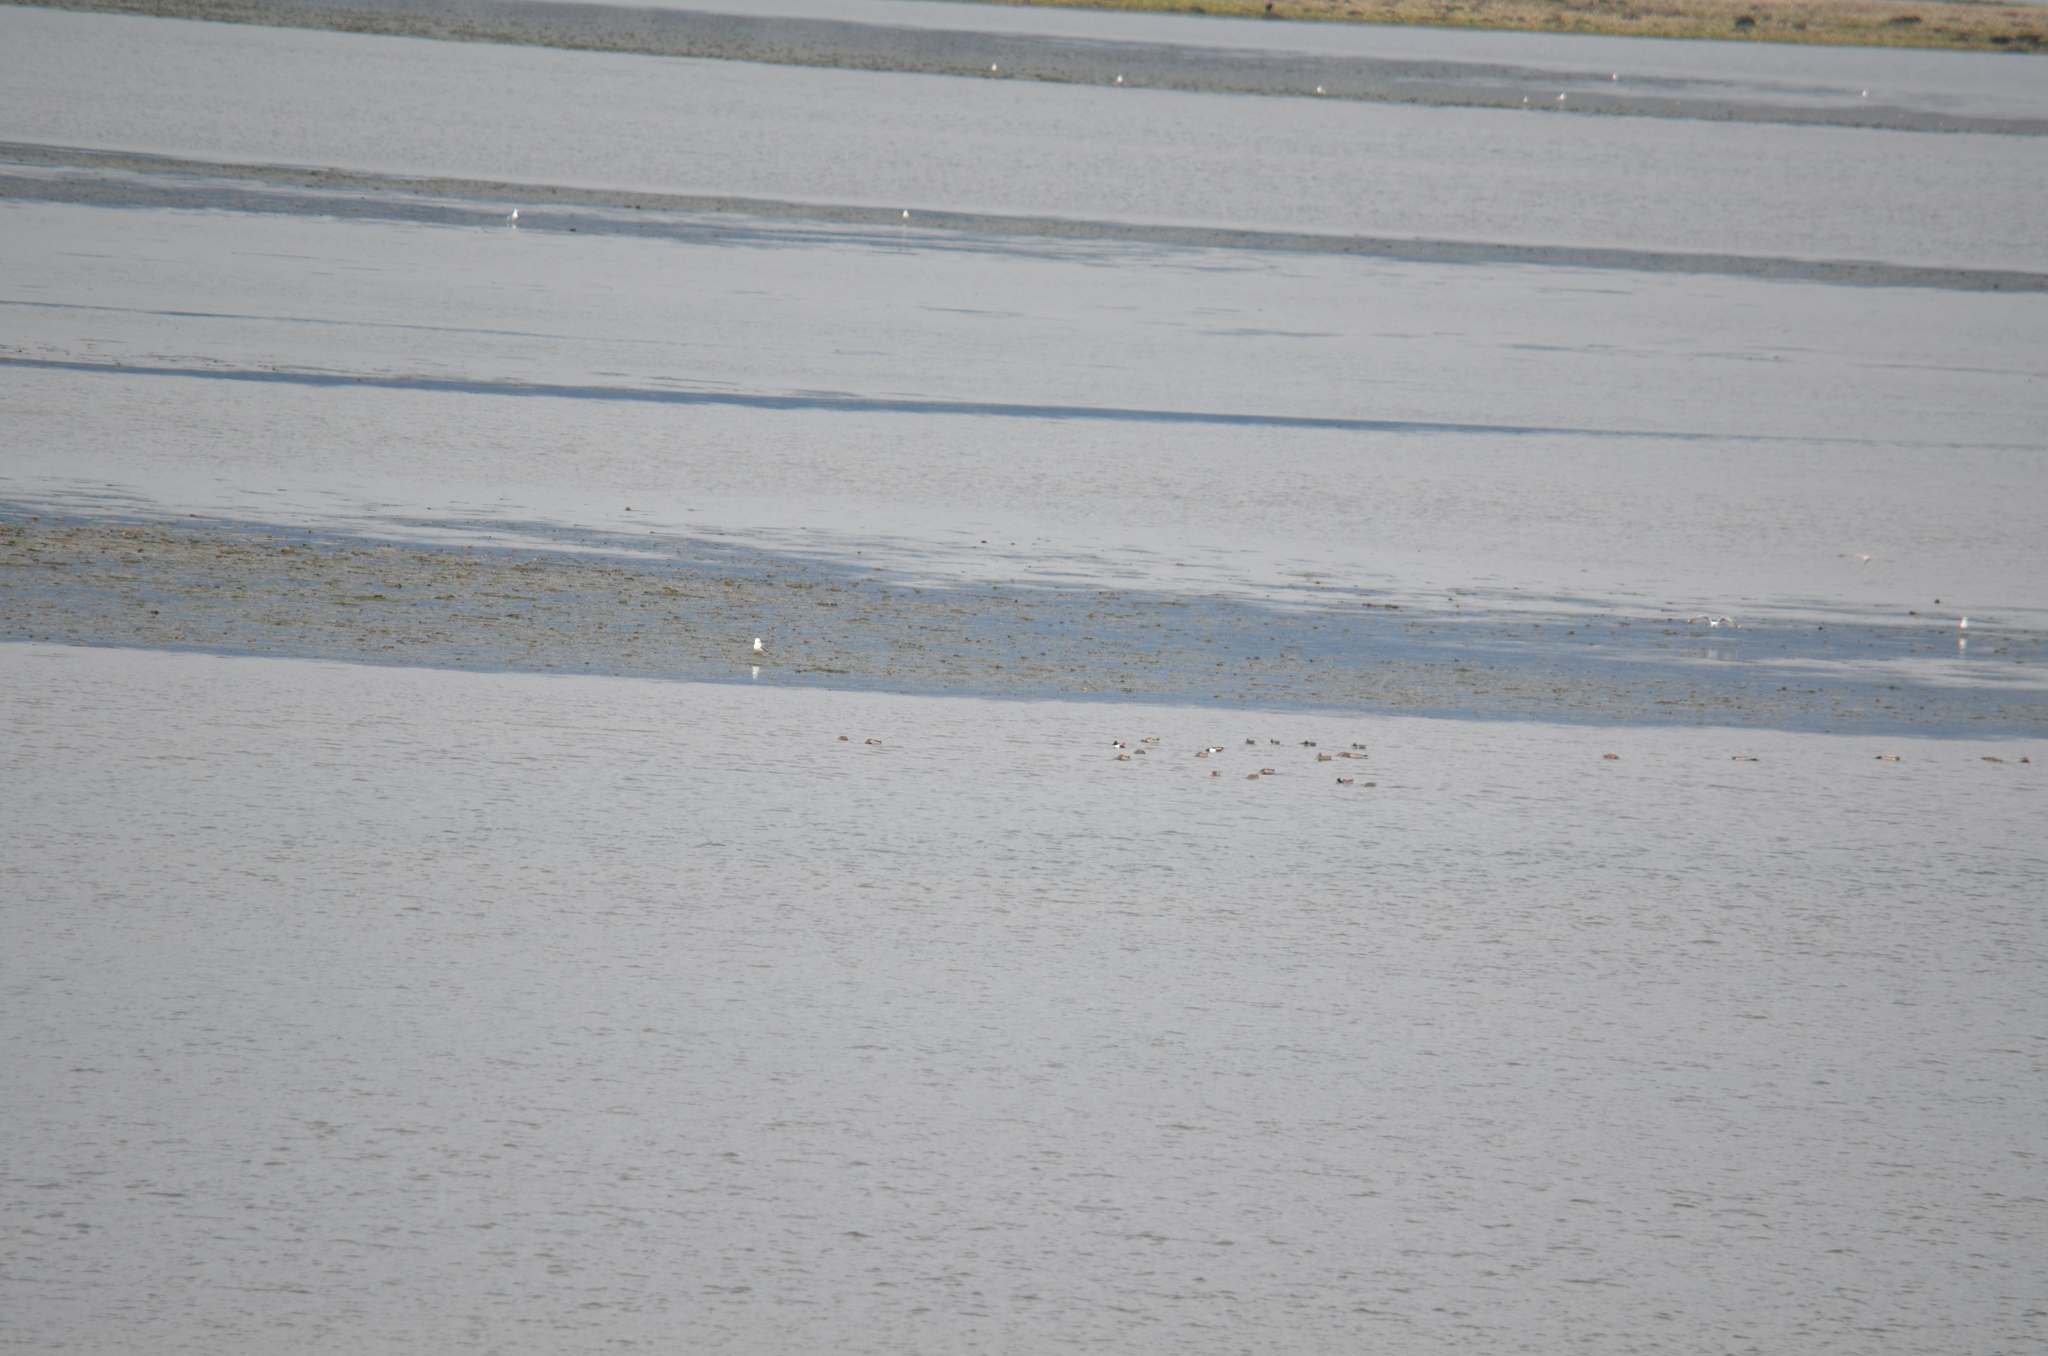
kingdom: Animalia
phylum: Chordata
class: Aves
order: Anseriformes
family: Anatidae
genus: Anas
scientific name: Anas crecca
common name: Eurasian teal
